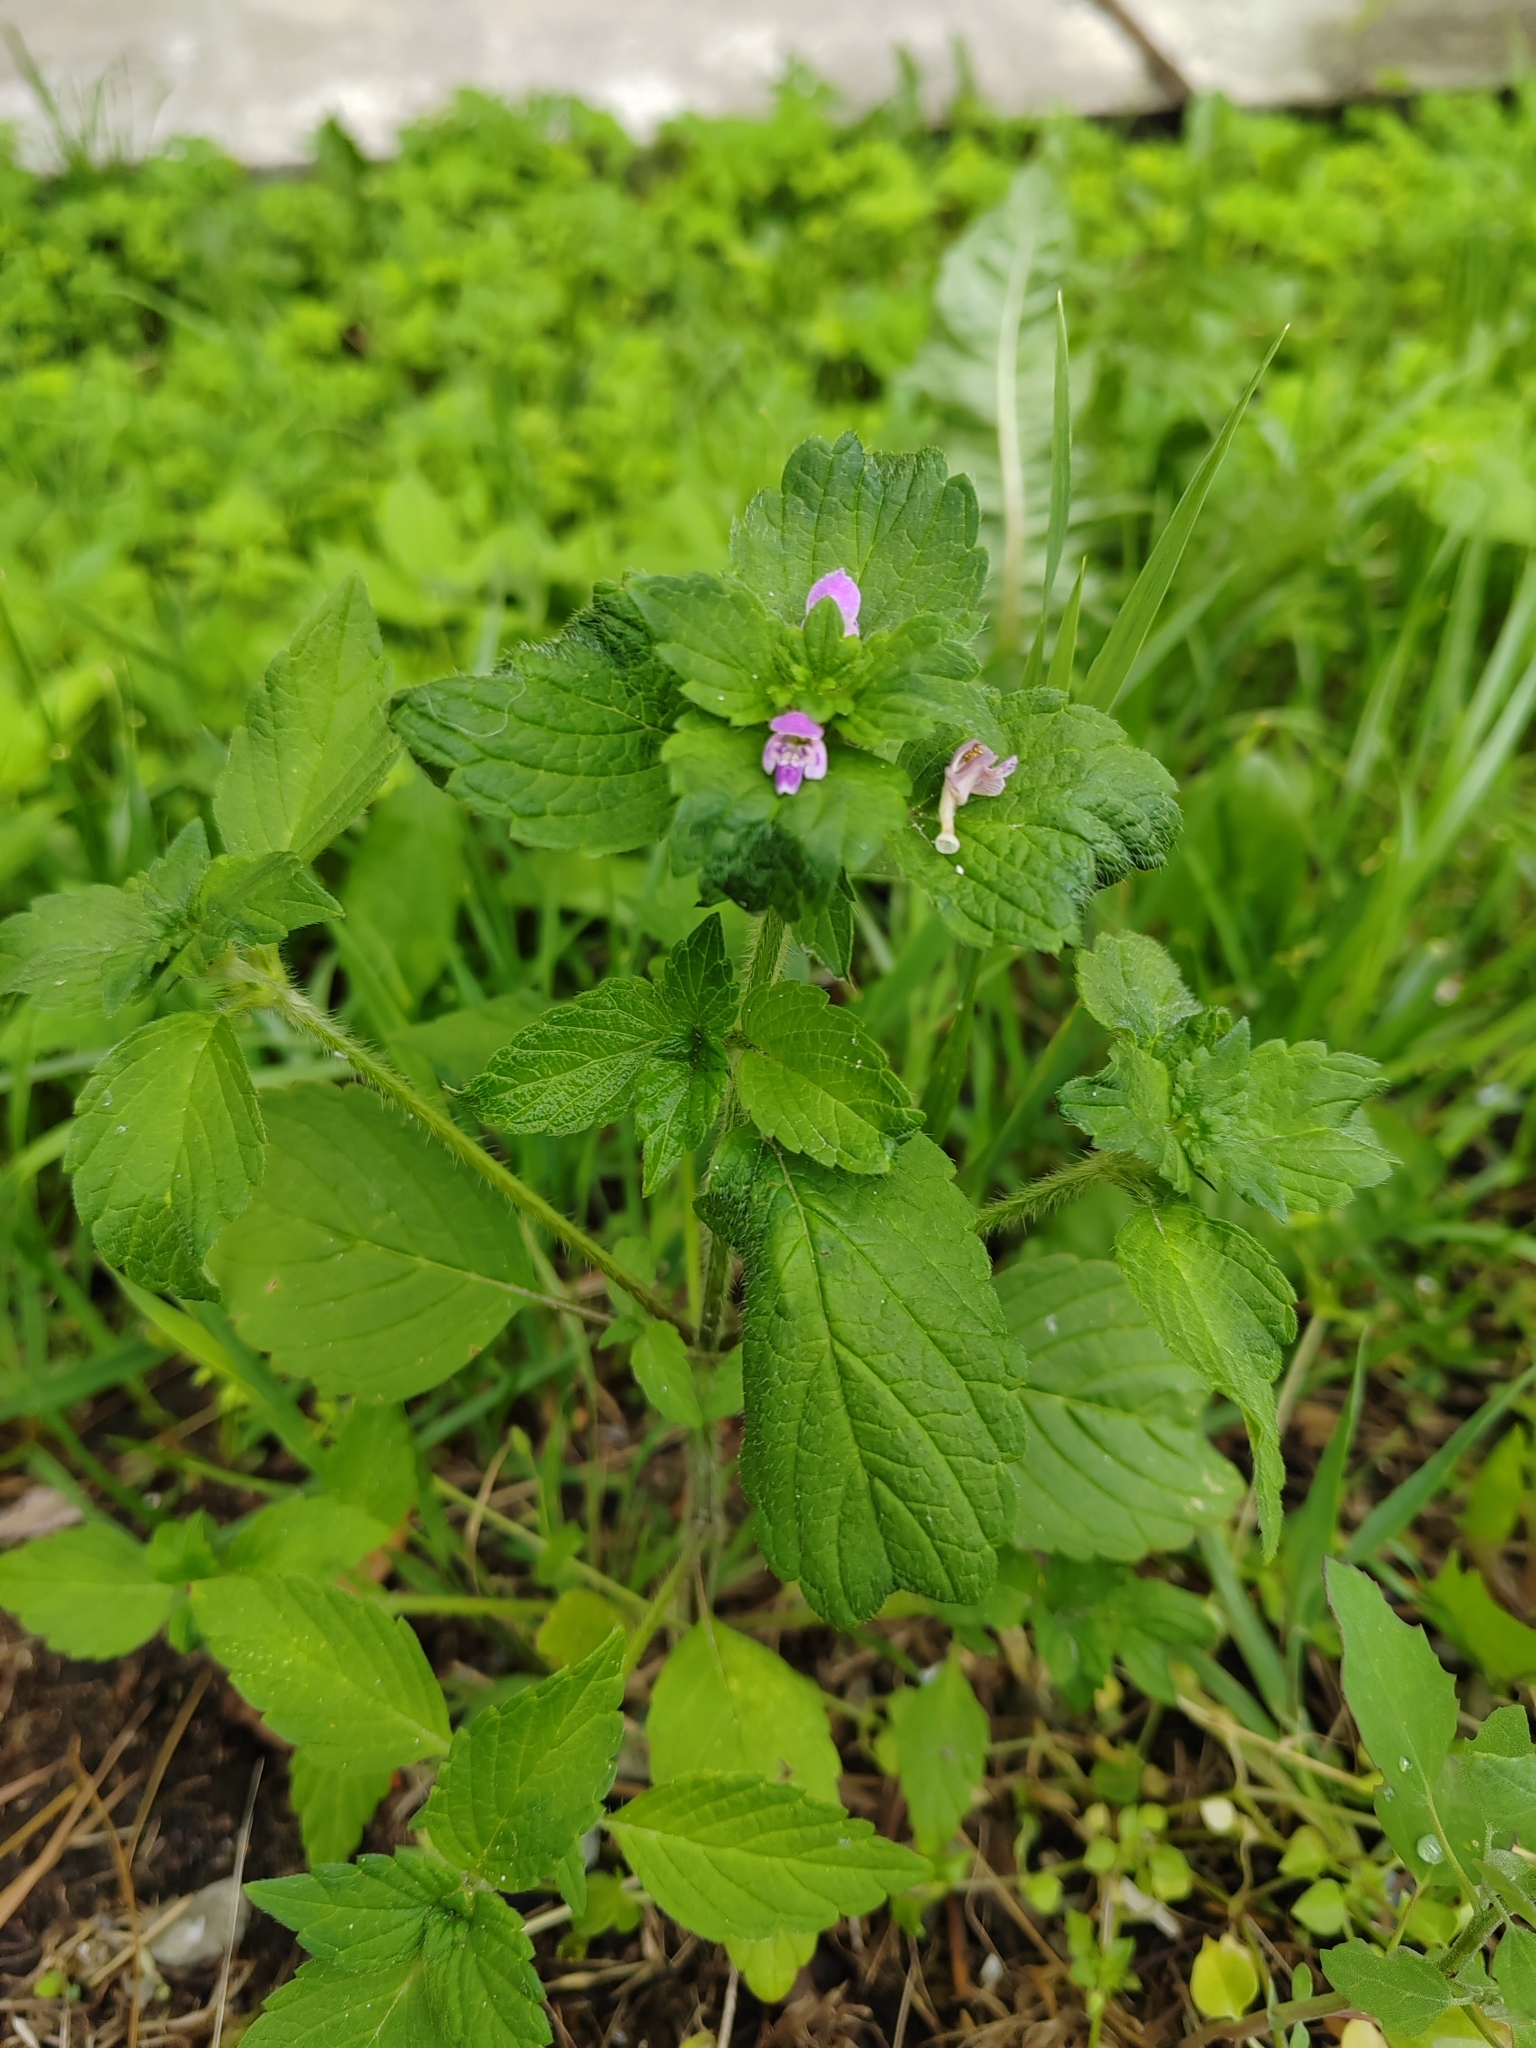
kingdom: Plantae
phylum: Tracheophyta
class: Magnoliopsida
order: Lamiales
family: Lamiaceae
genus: Galeopsis
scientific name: Galeopsis bifida
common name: Bifid hemp-nettle
